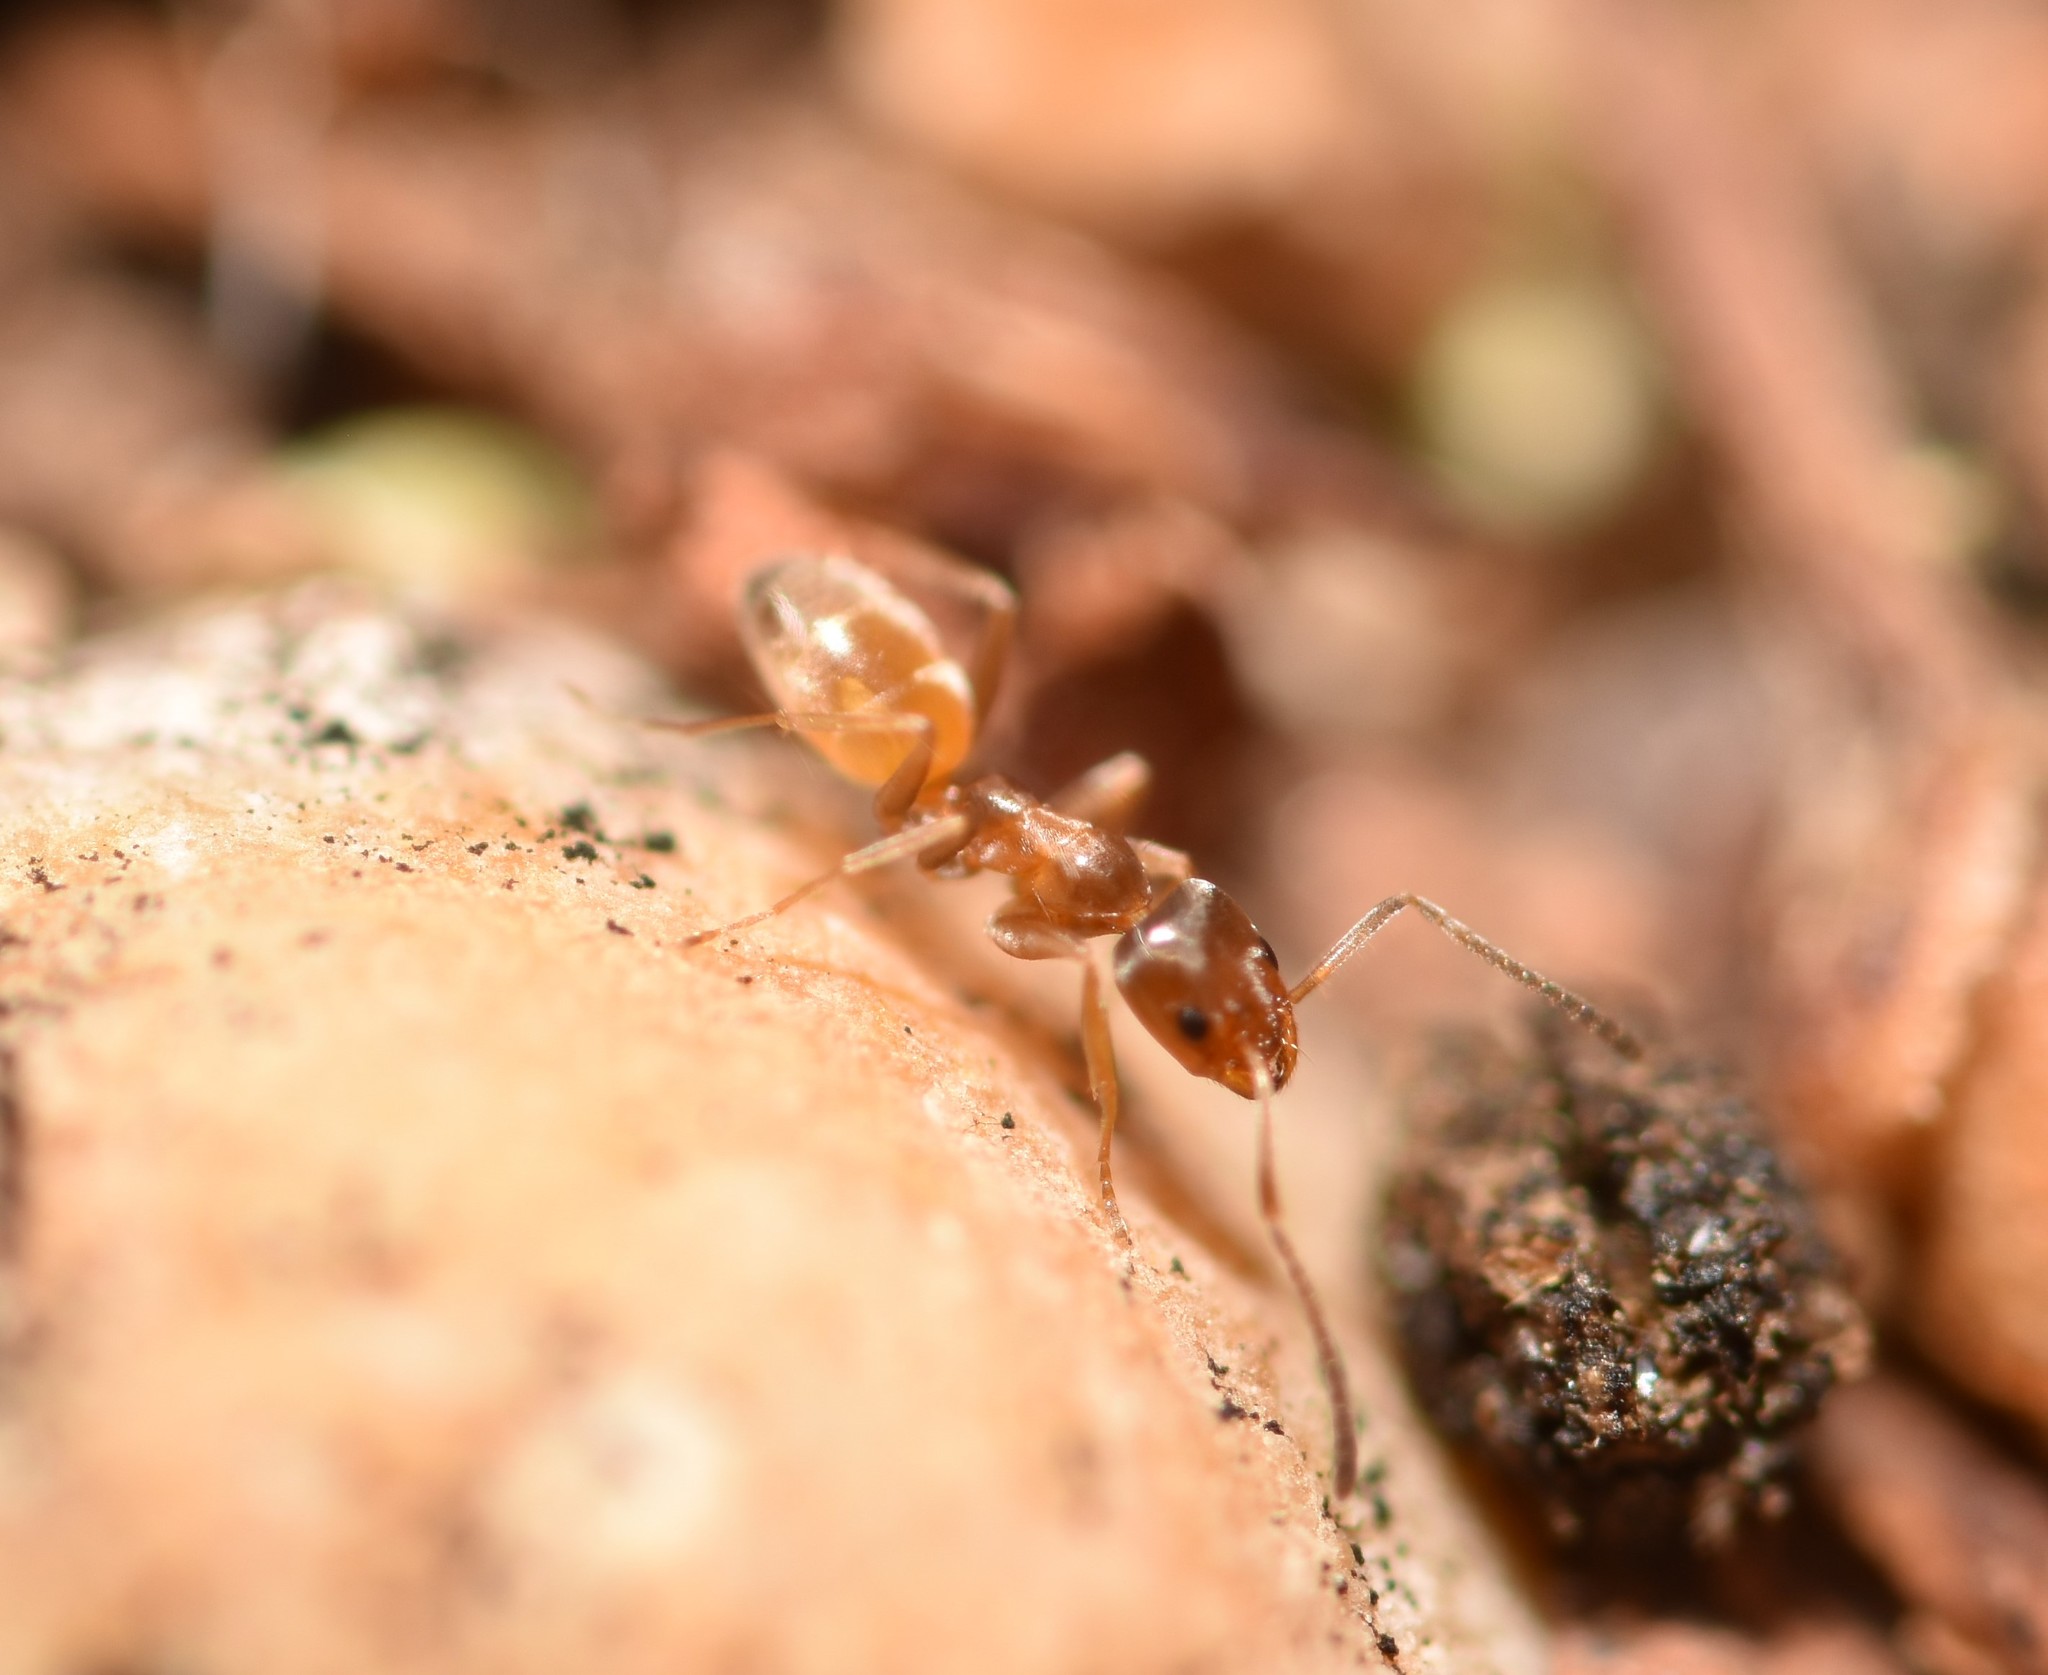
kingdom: Animalia
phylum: Arthropoda
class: Insecta
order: Hymenoptera
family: Formicidae
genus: Forelius
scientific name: Forelius pruinosus
